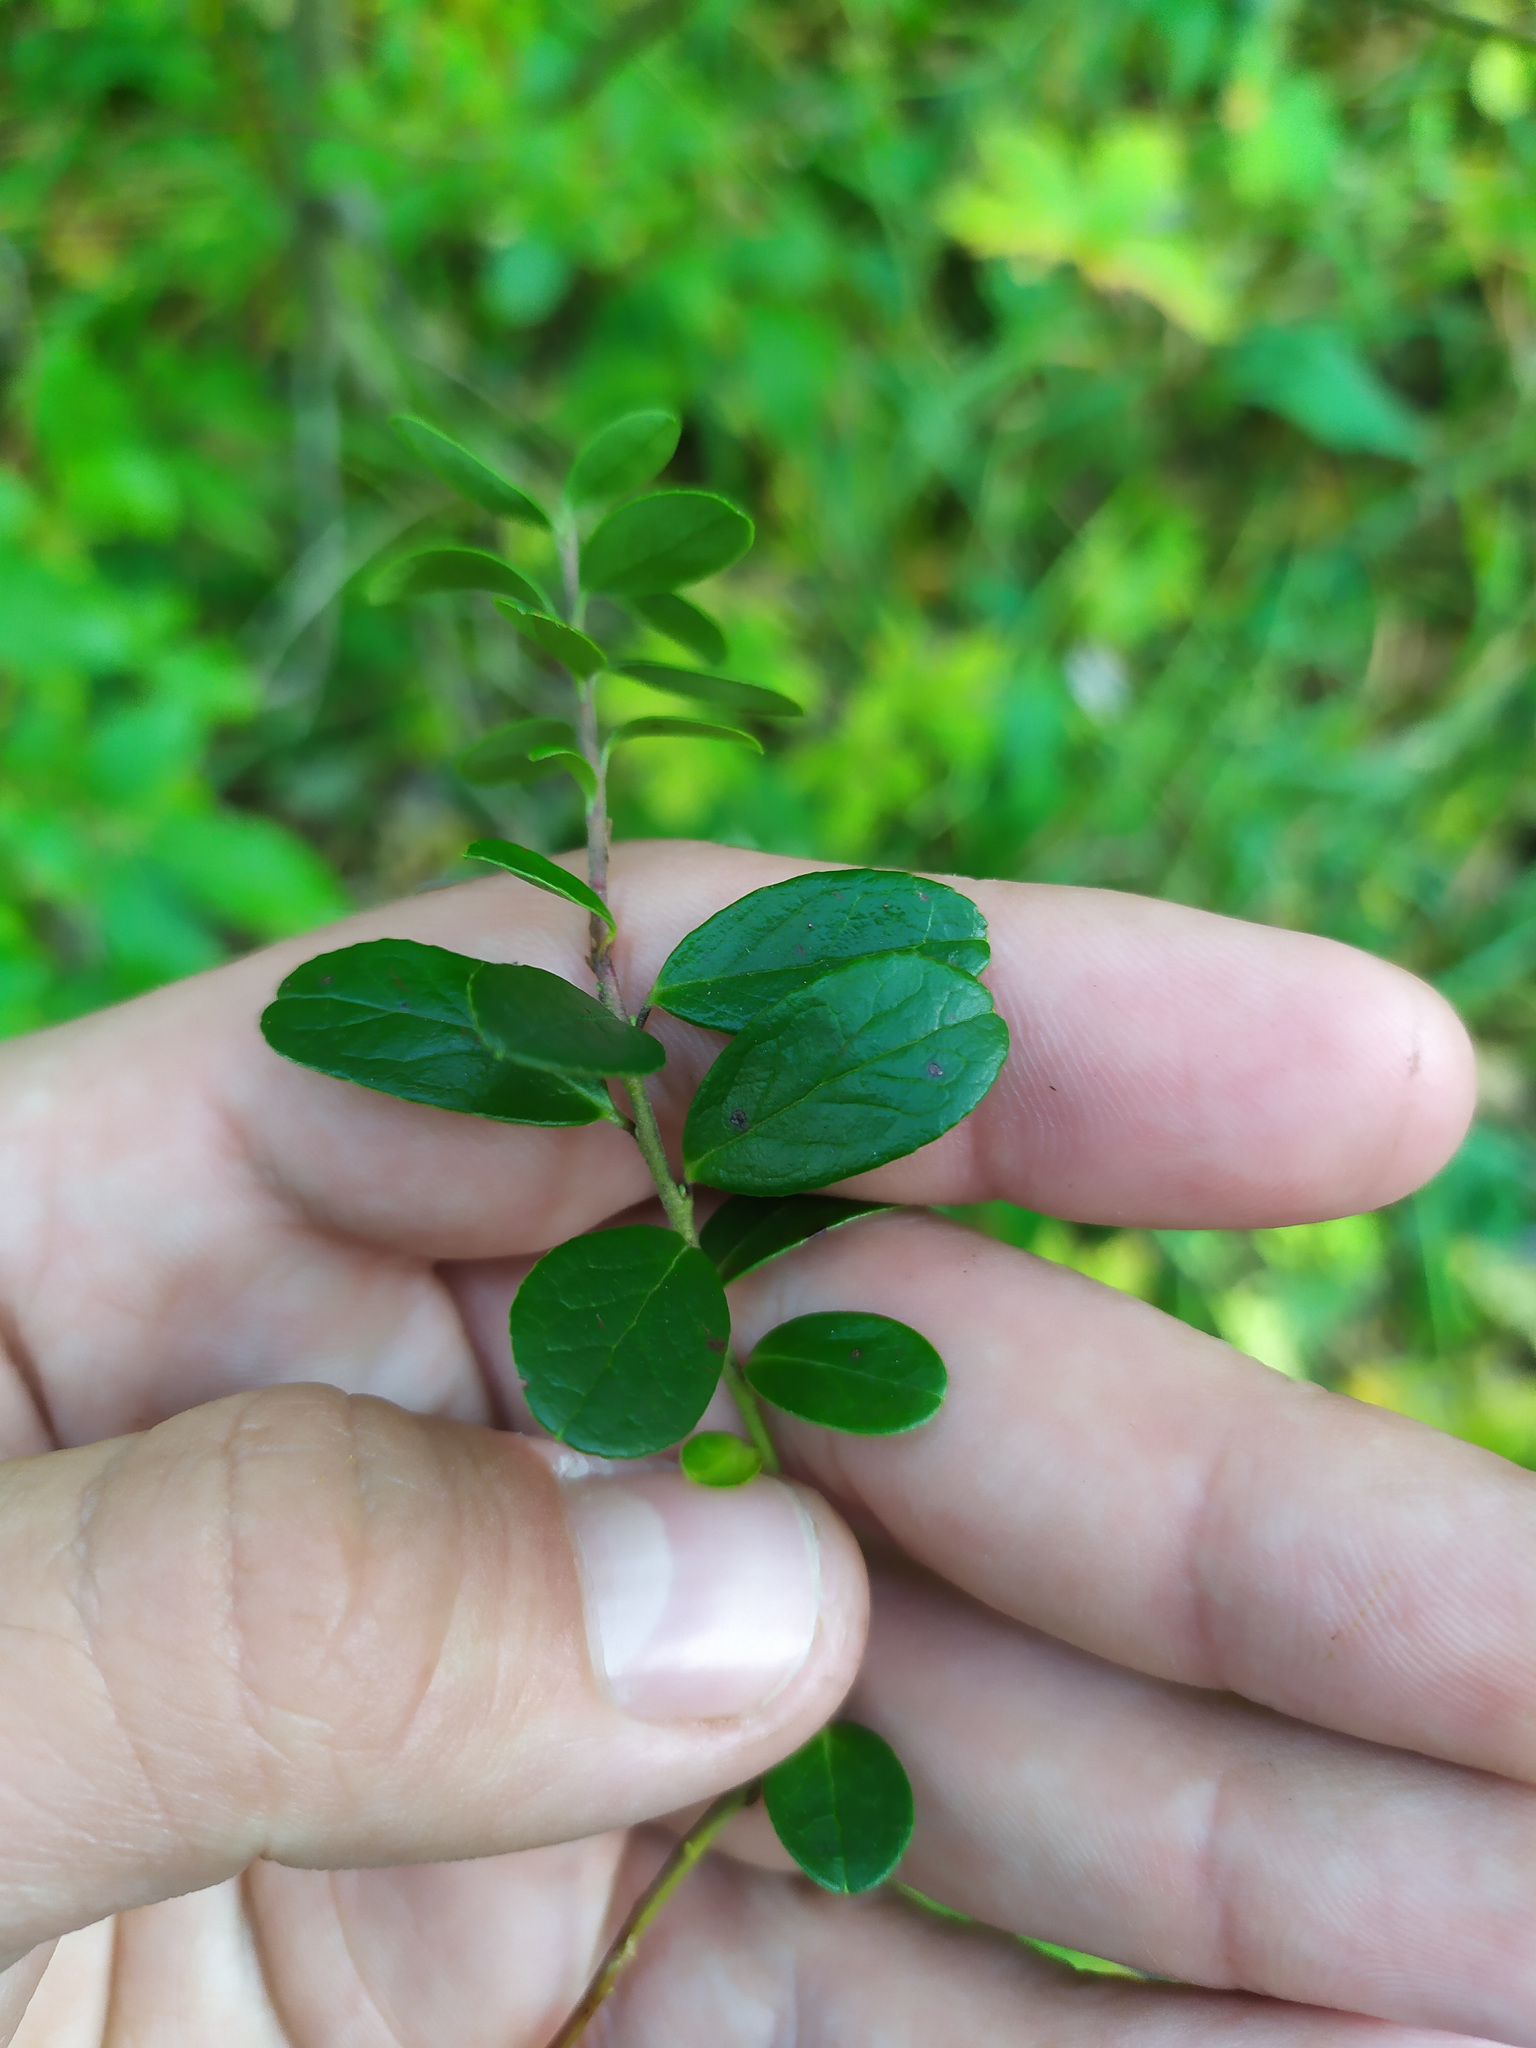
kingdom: Plantae
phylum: Tracheophyta
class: Magnoliopsida
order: Ericales
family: Ericaceae
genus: Vaccinium
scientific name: Vaccinium vitis-idaea
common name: Cowberry
